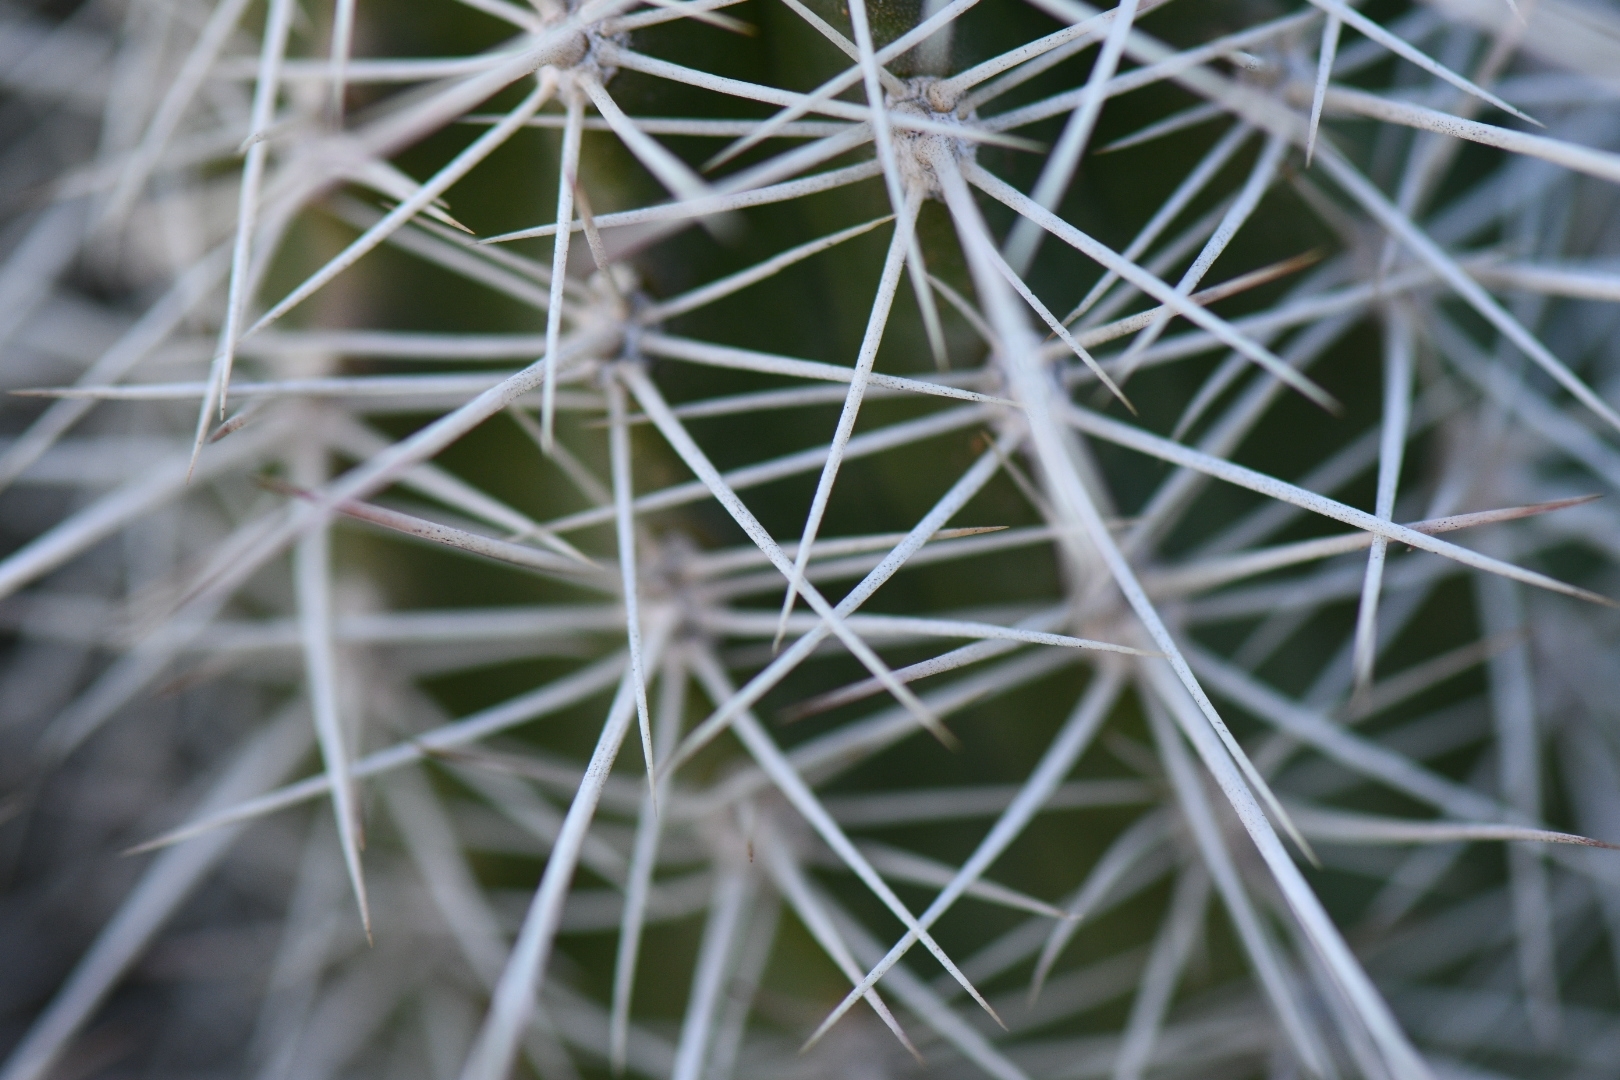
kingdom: Plantae
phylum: Tracheophyta
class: Magnoliopsida
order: Caryophyllales
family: Cactaceae
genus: Echinocereus
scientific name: Echinocereus bakeri
